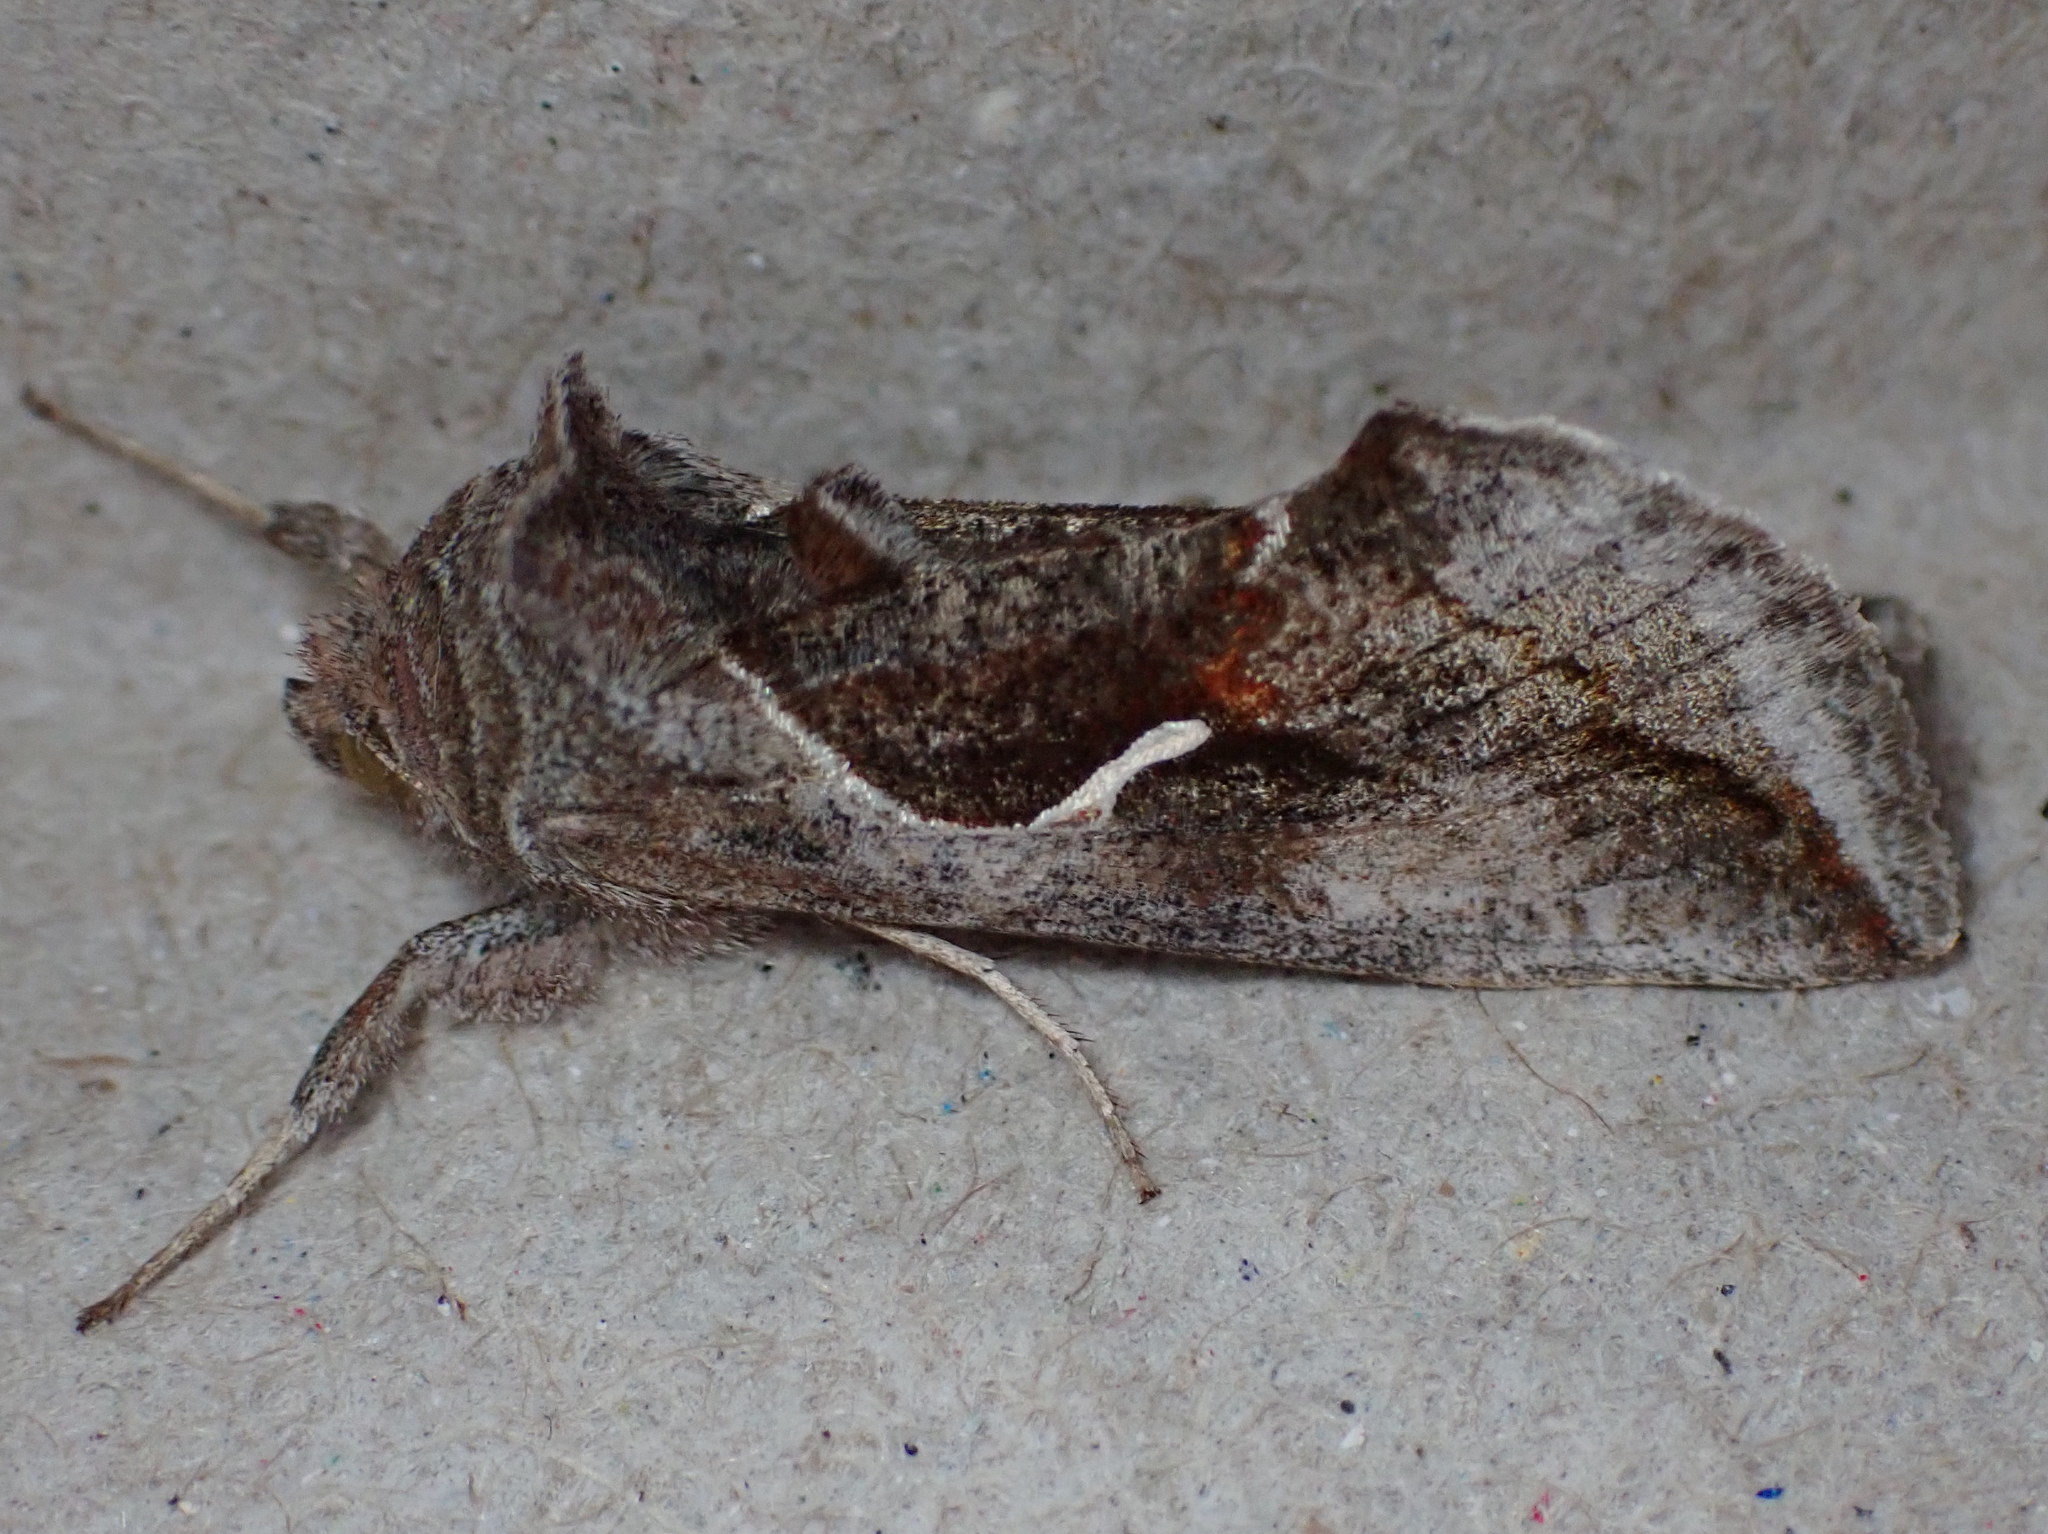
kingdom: Animalia
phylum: Arthropoda
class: Insecta
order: Lepidoptera
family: Noctuidae
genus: Anagrapha
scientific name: Anagrapha falcifera
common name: Celery looper
